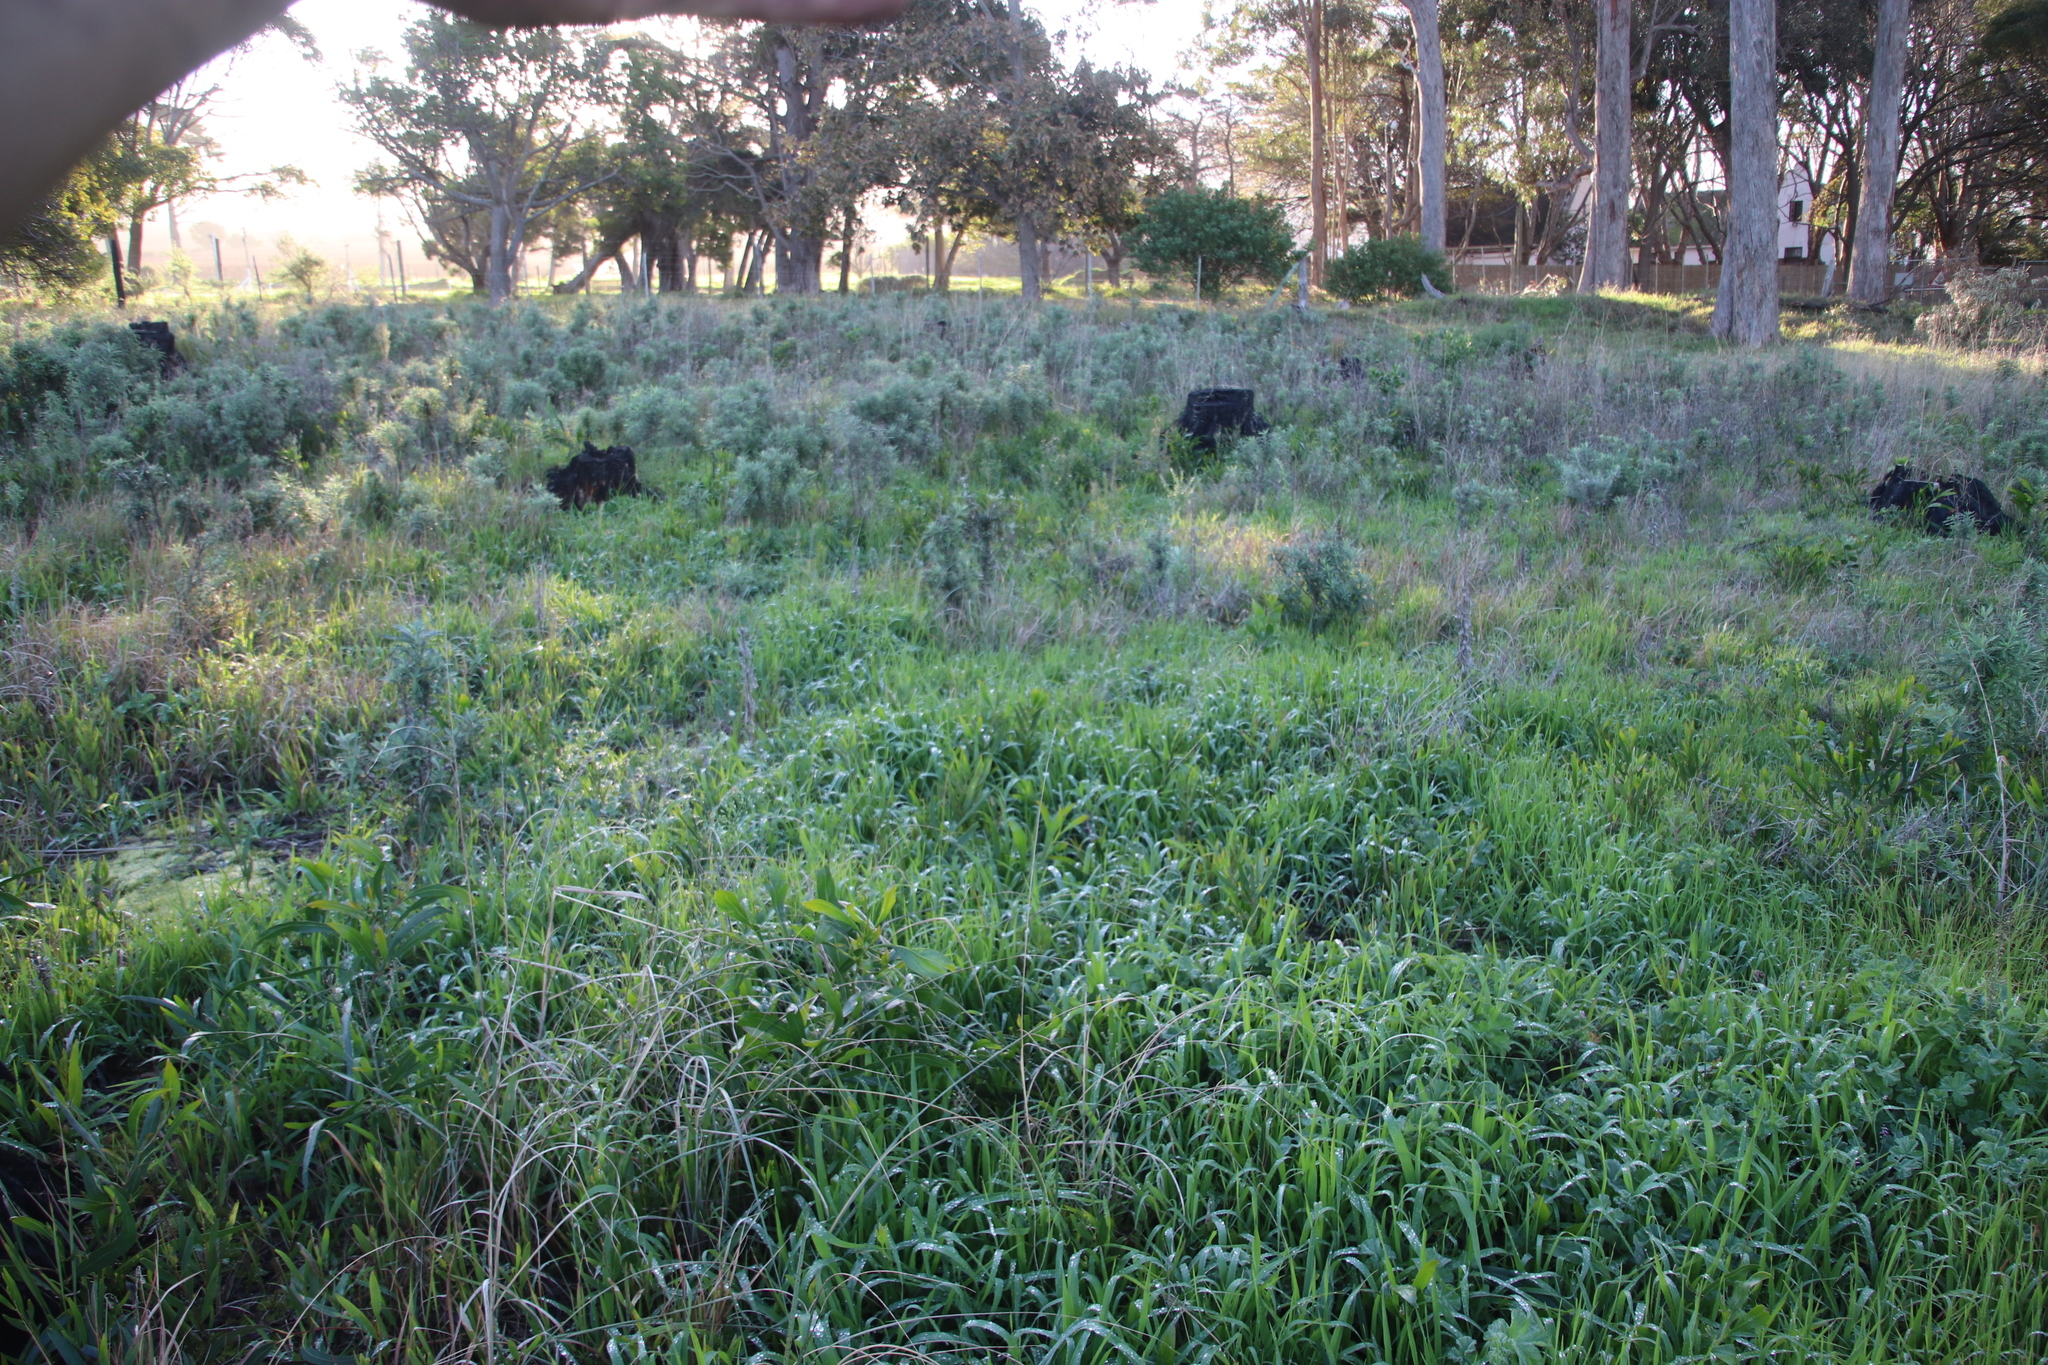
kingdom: Plantae
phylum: Tracheophyta
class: Magnoliopsida
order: Asterales
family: Asteraceae
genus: Senecio
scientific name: Senecio pterophorus
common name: Shoddy ragwort
